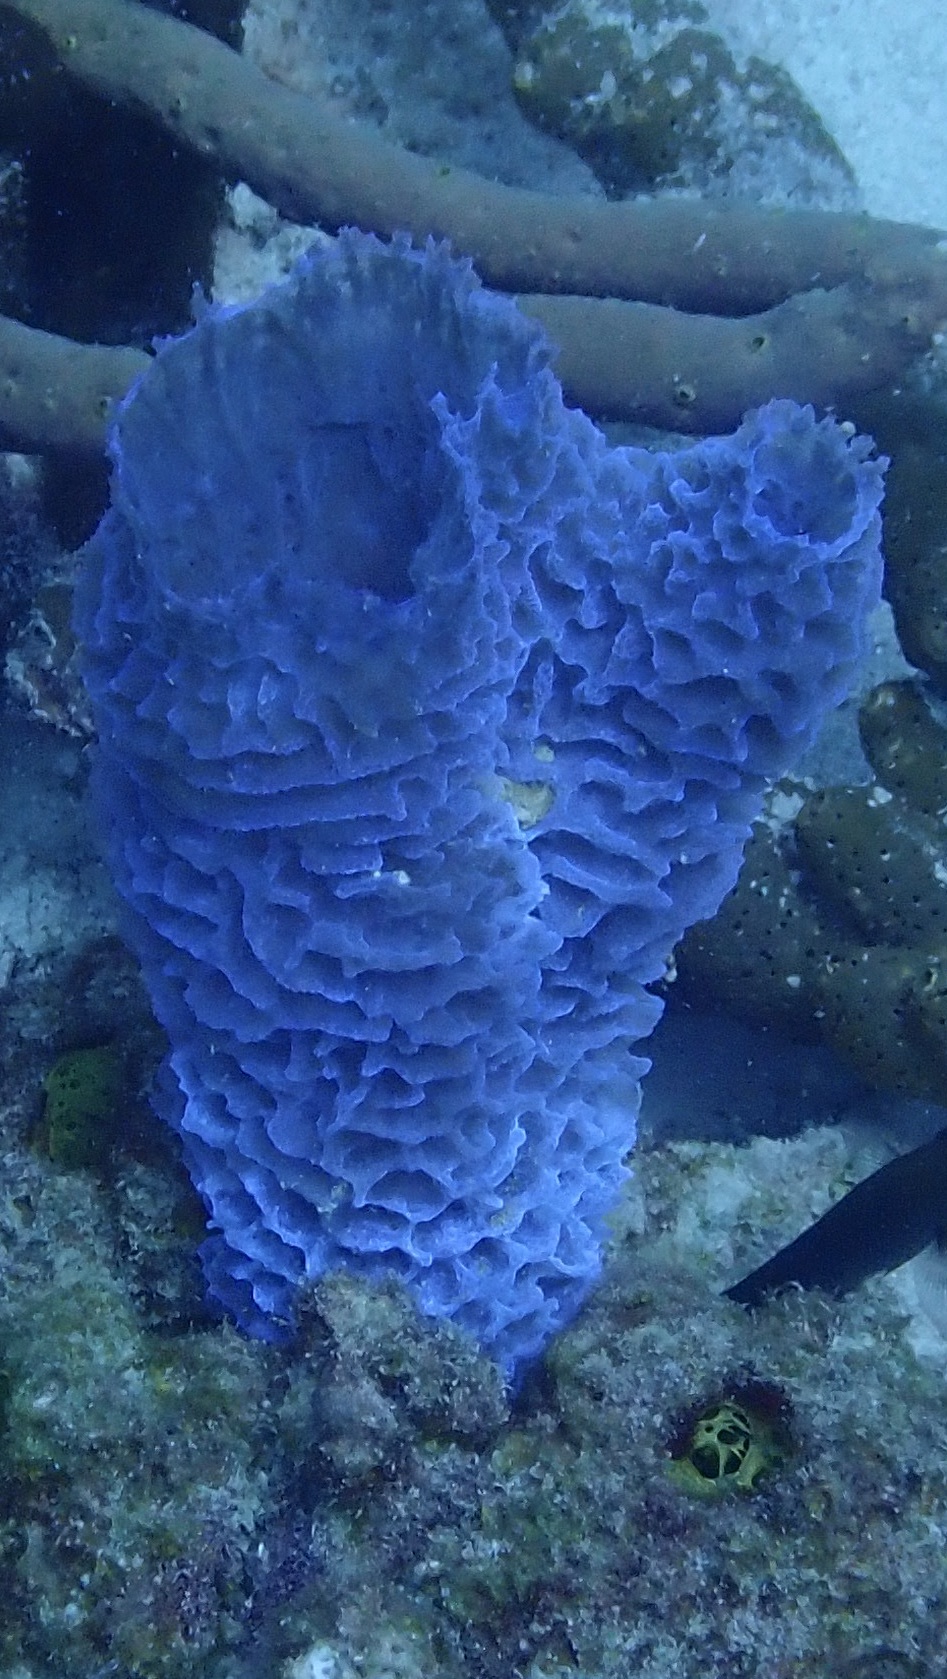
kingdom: Animalia
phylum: Porifera
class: Demospongiae
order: Haplosclerida
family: Callyspongiidae
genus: Callyspongia
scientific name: Callyspongia plicifera
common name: Azure vase sponge
